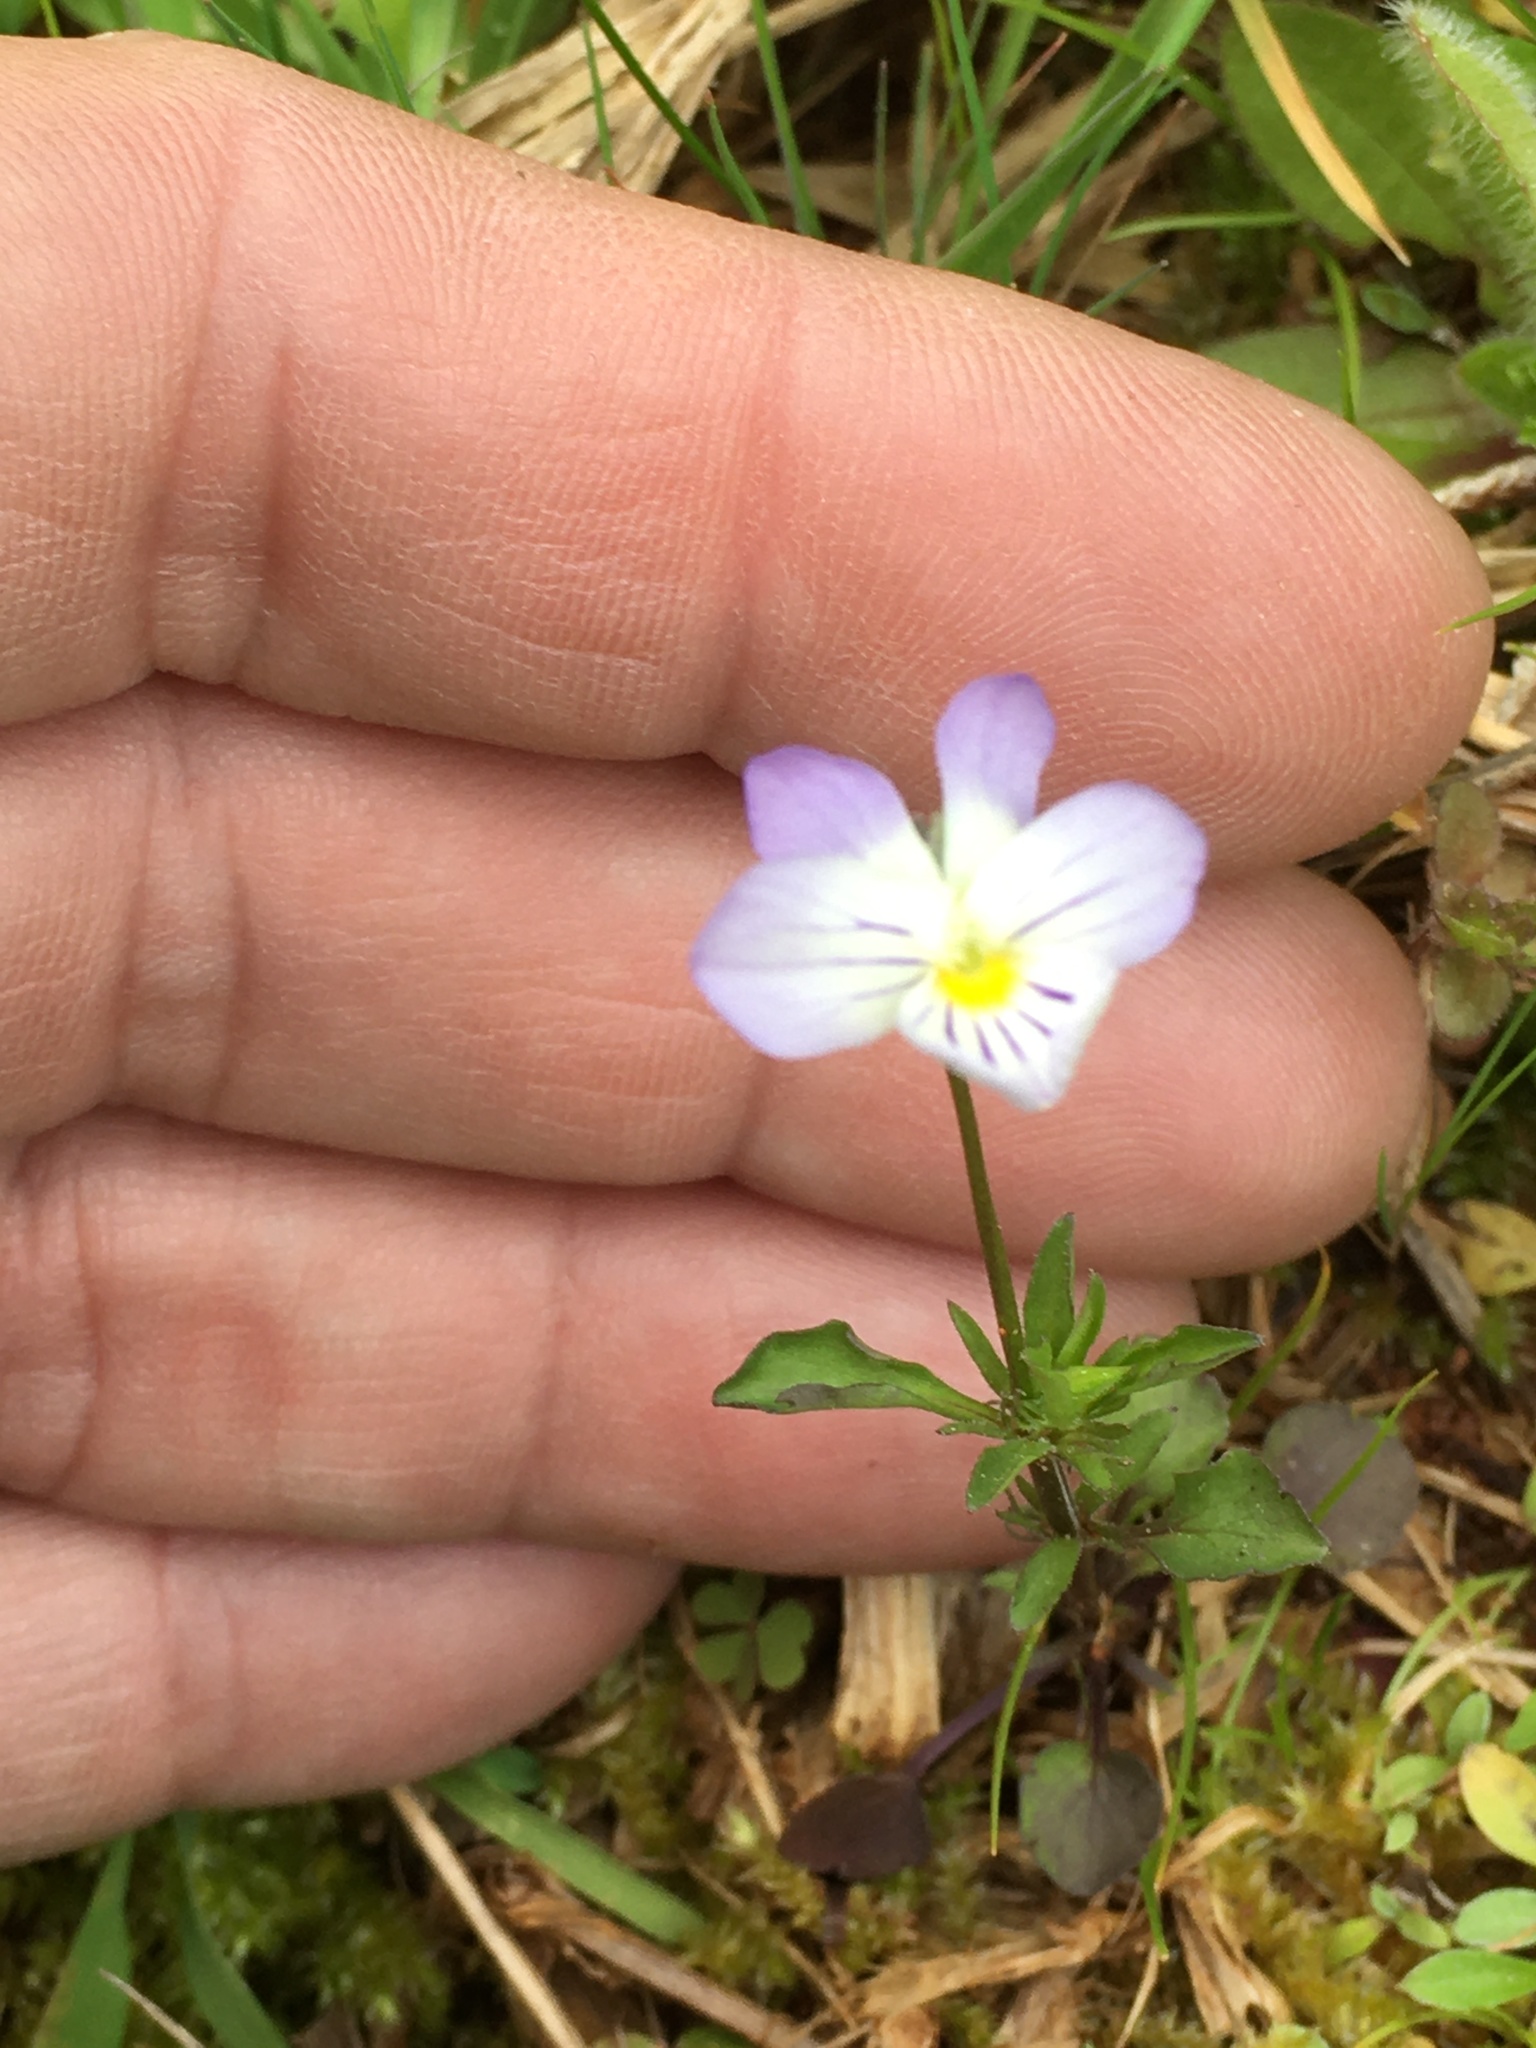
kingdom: Plantae
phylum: Tracheophyta
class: Magnoliopsida
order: Malpighiales
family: Violaceae
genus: Viola
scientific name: Viola rafinesquei
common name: American field pansy
